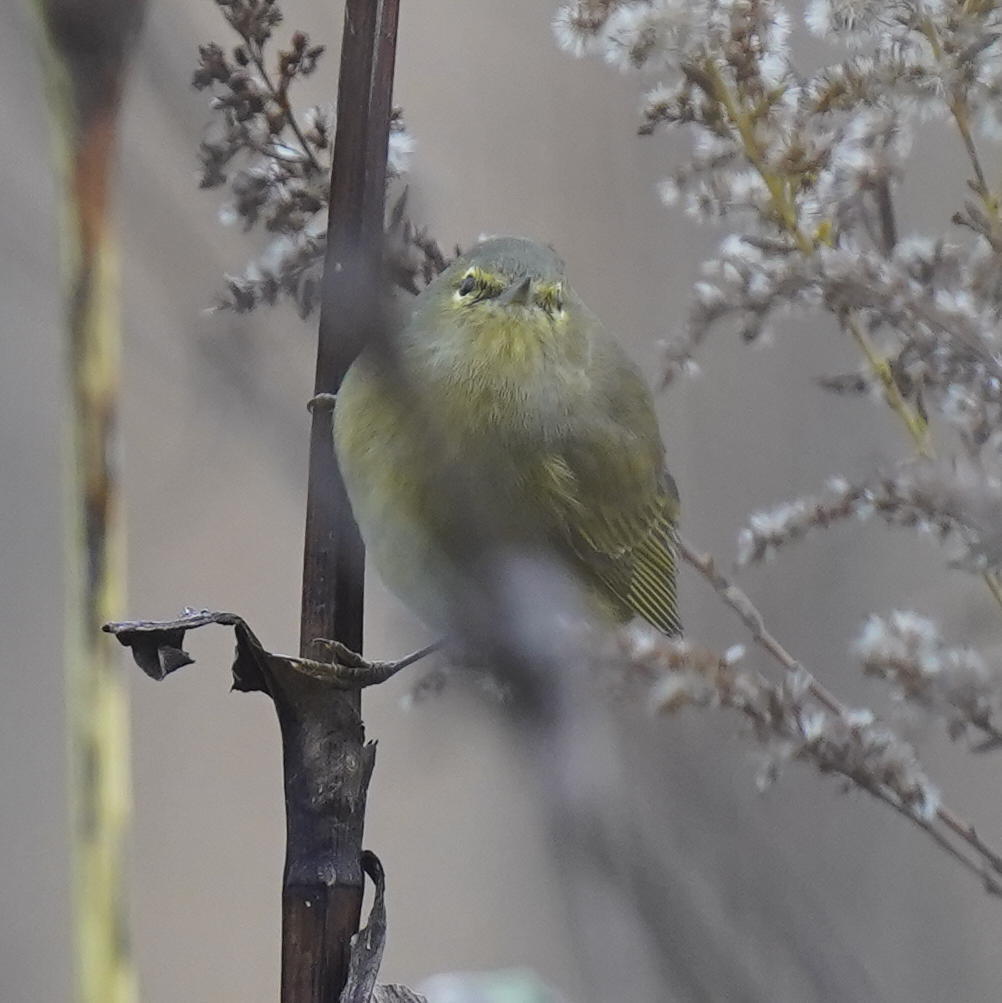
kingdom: Animalia
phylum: Chordata
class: Aves
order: Passeriformes
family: Parulidae
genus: Leiothlypis
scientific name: Leiothlypis celata
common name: Orange-crowned warbler
